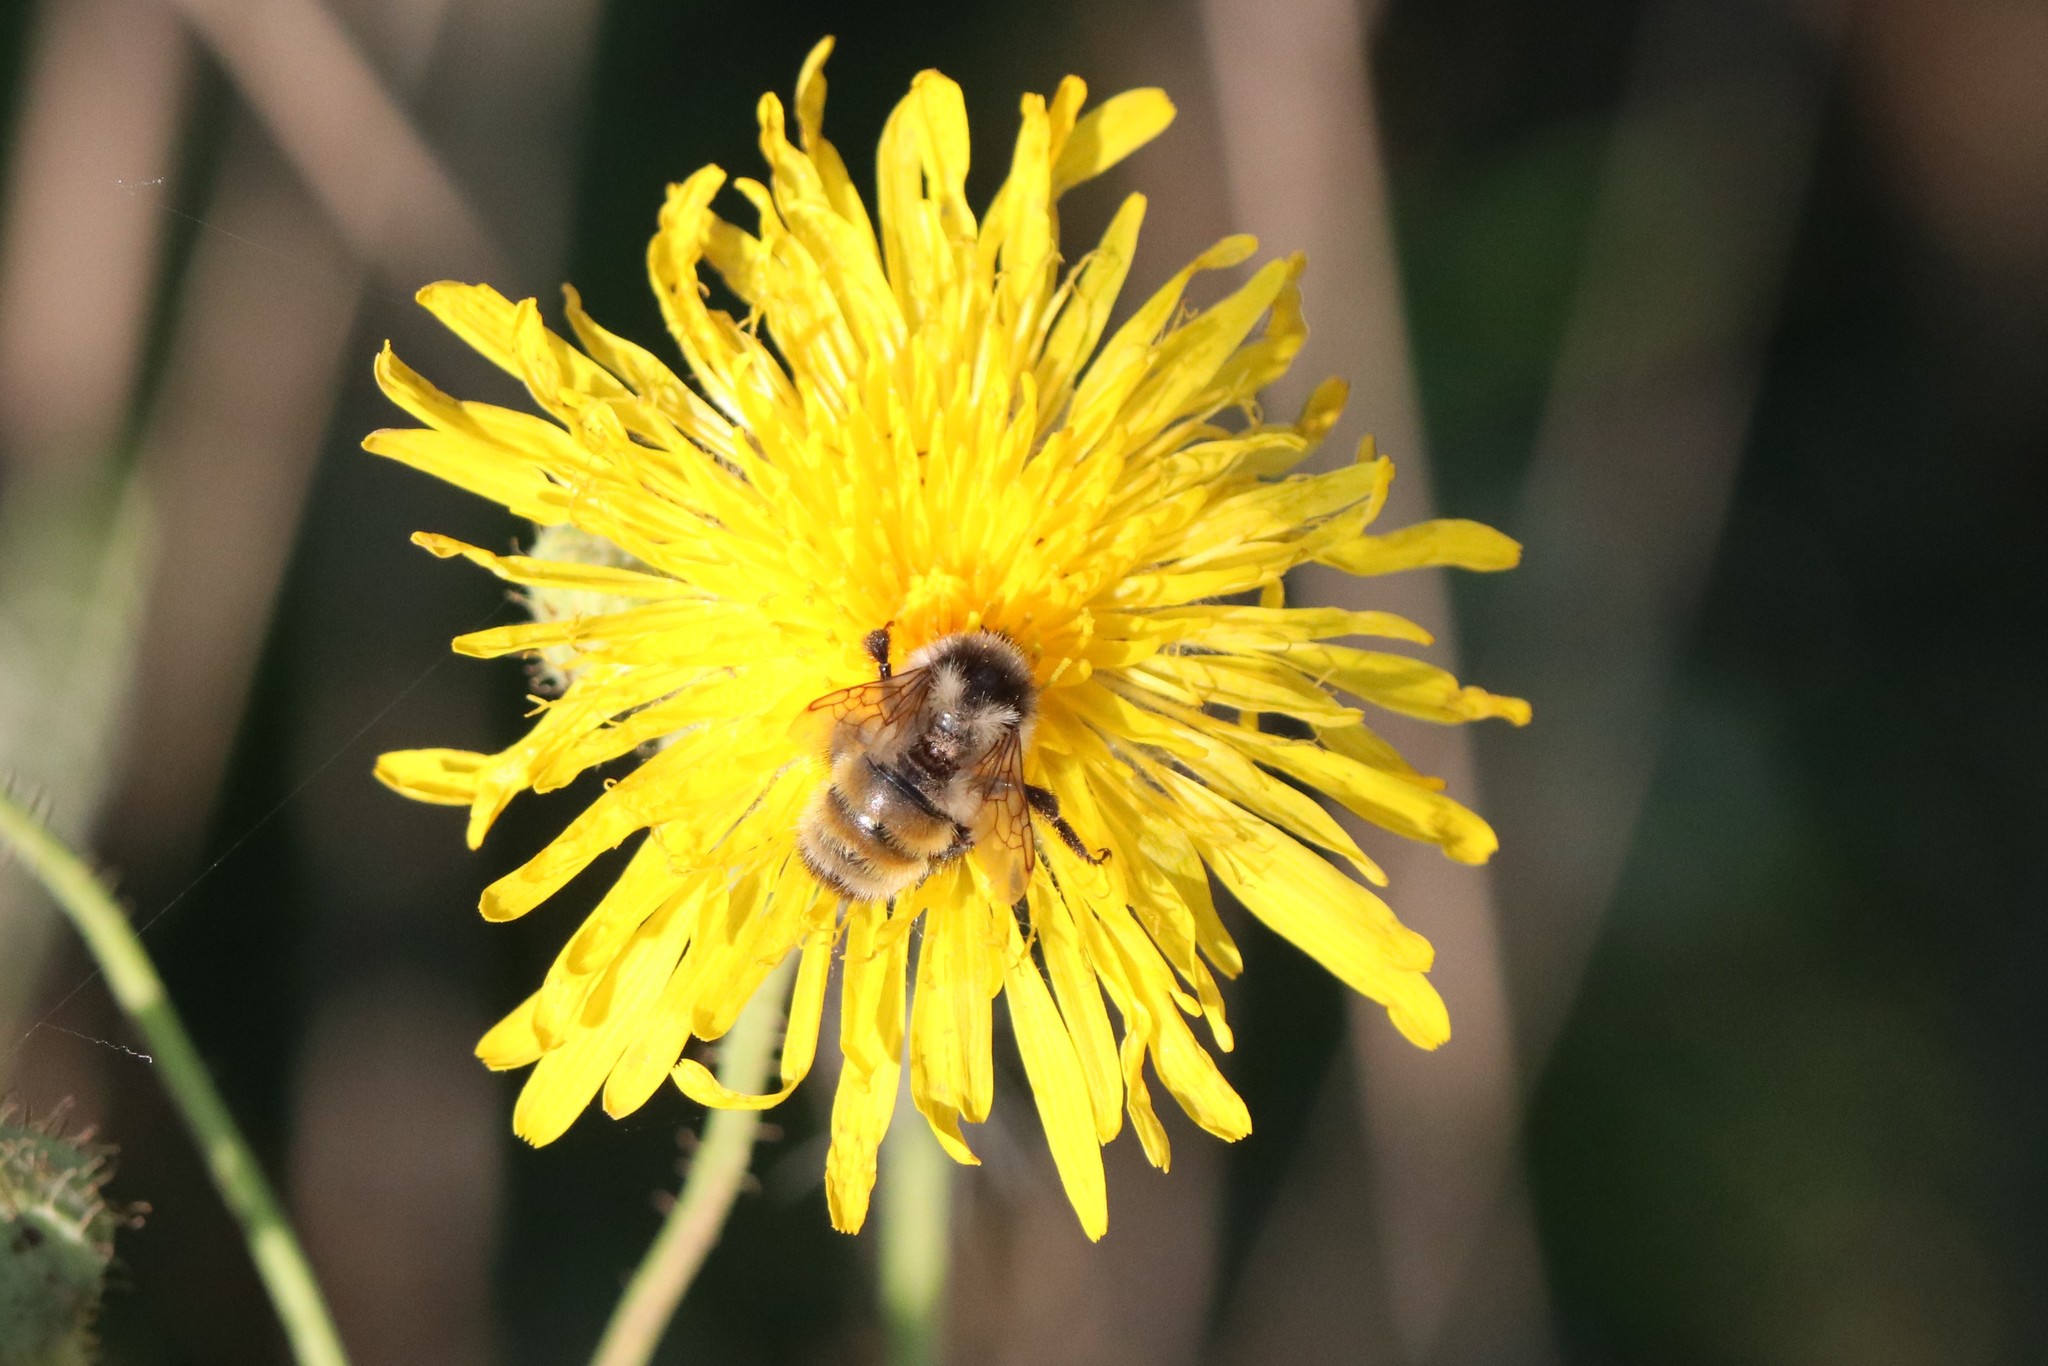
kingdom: Animalia
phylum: Arthropoda
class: Insecta
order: Hymenoptera
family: Apidae
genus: Bombus
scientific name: Bombus ternarius
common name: Tri-colored bumble bee
